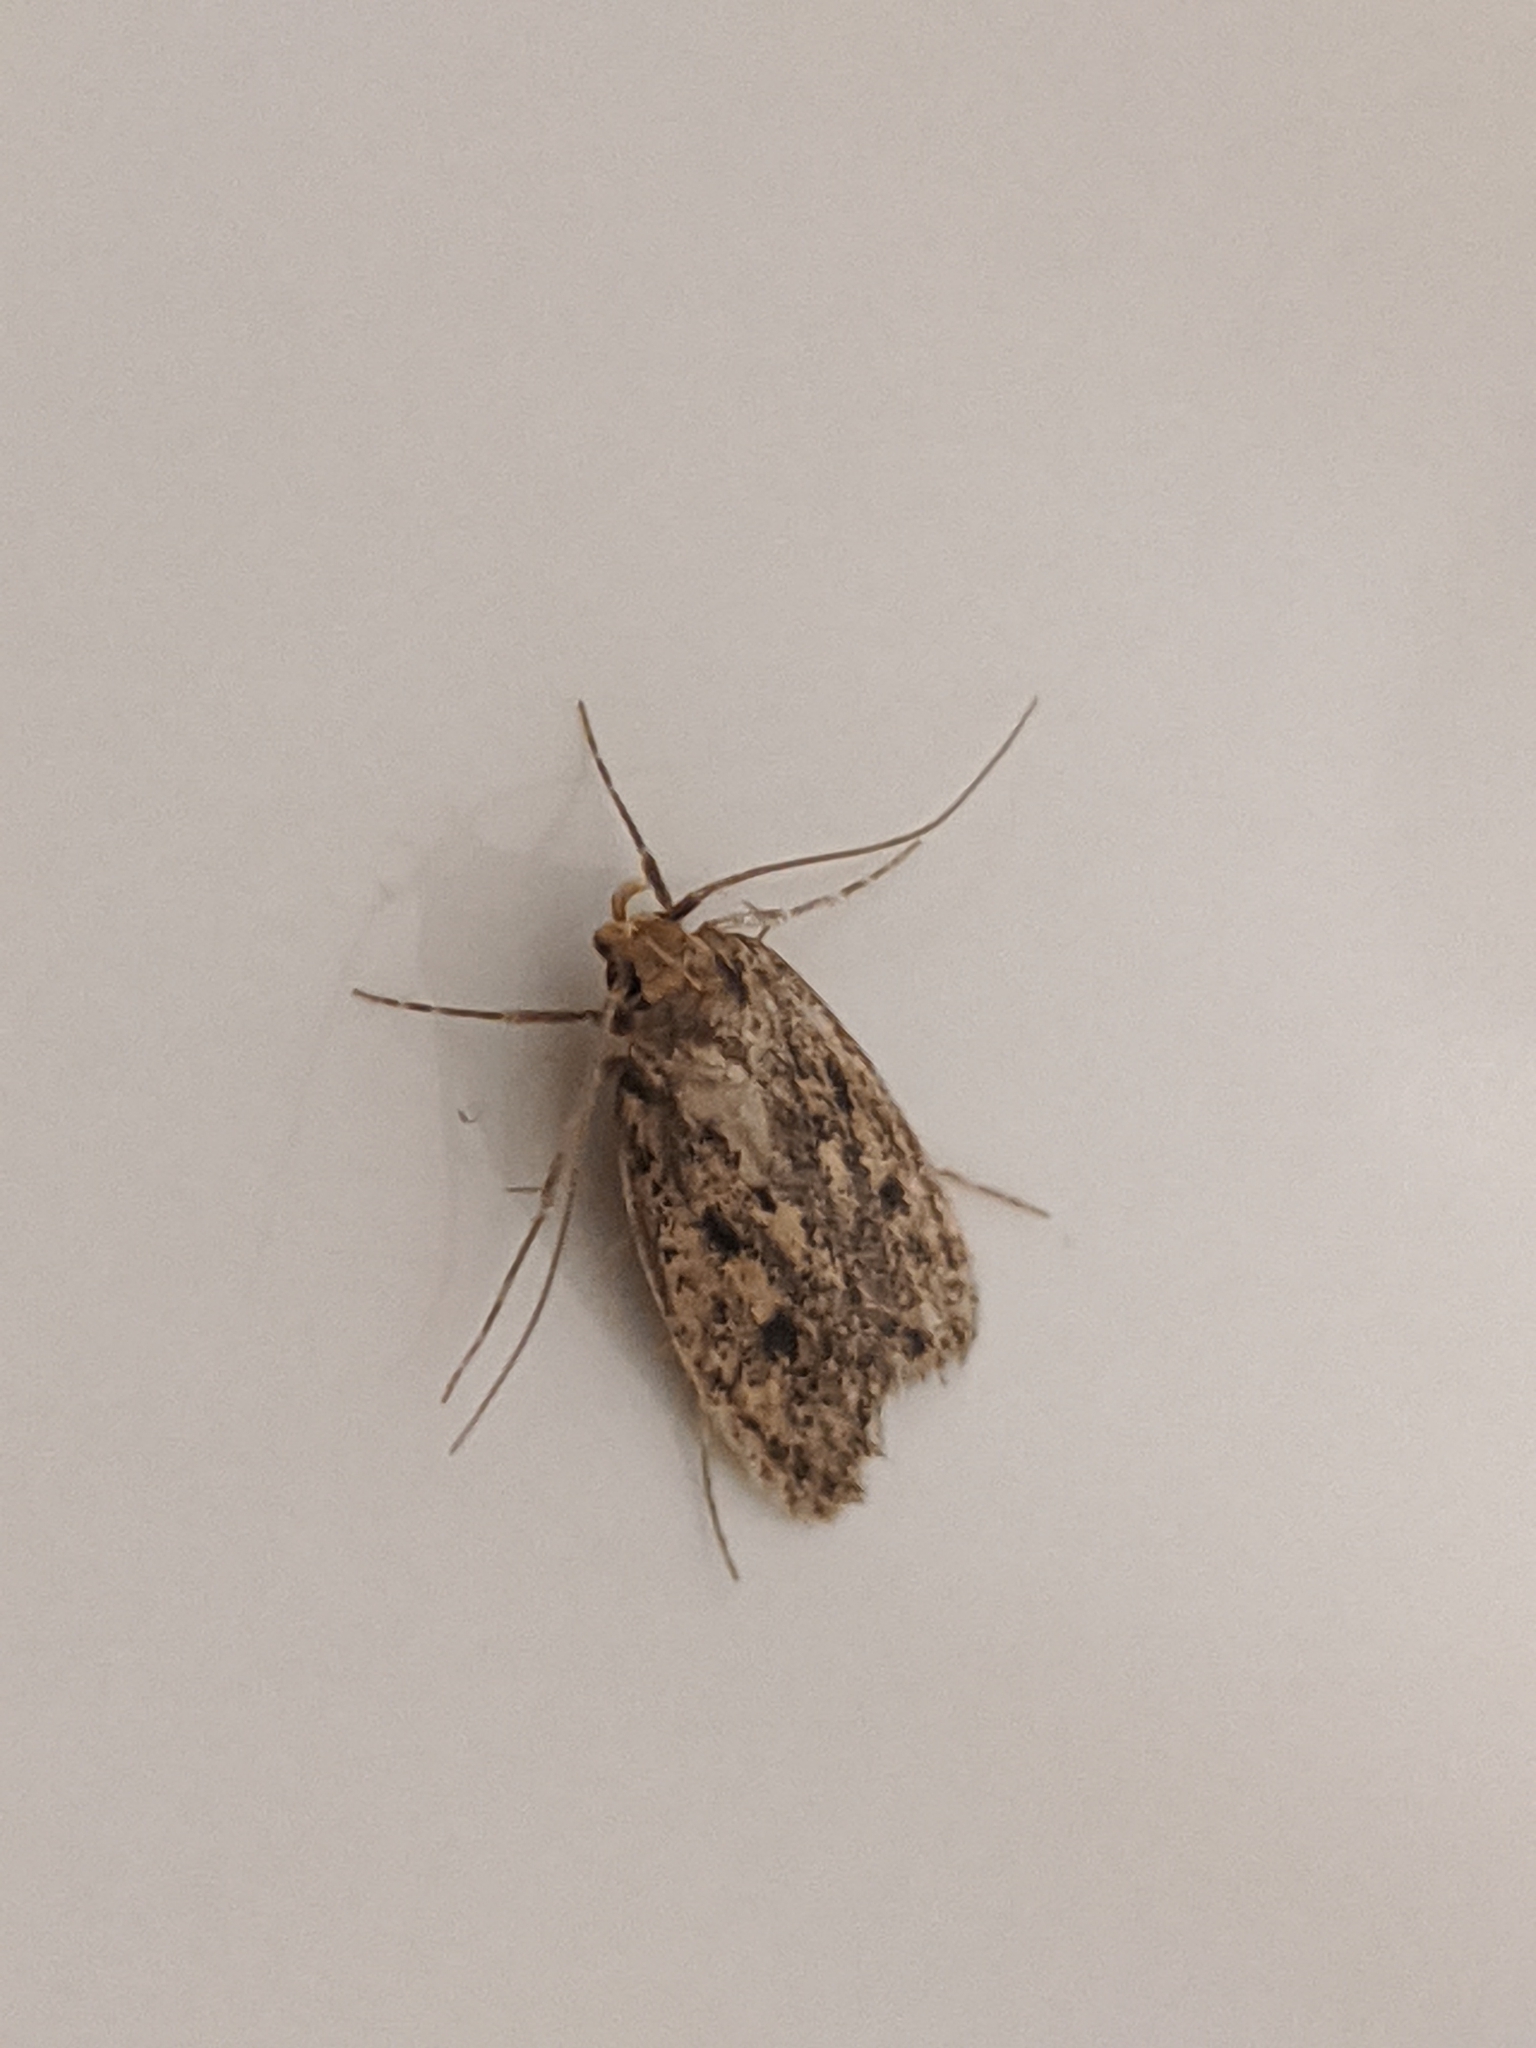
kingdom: Animalia
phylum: Arthropoda
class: Insecta
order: Lepidoptera
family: Oecophoridae
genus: Hofmannophila
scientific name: Hofmannophila pseudospretella
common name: Brown house moth
